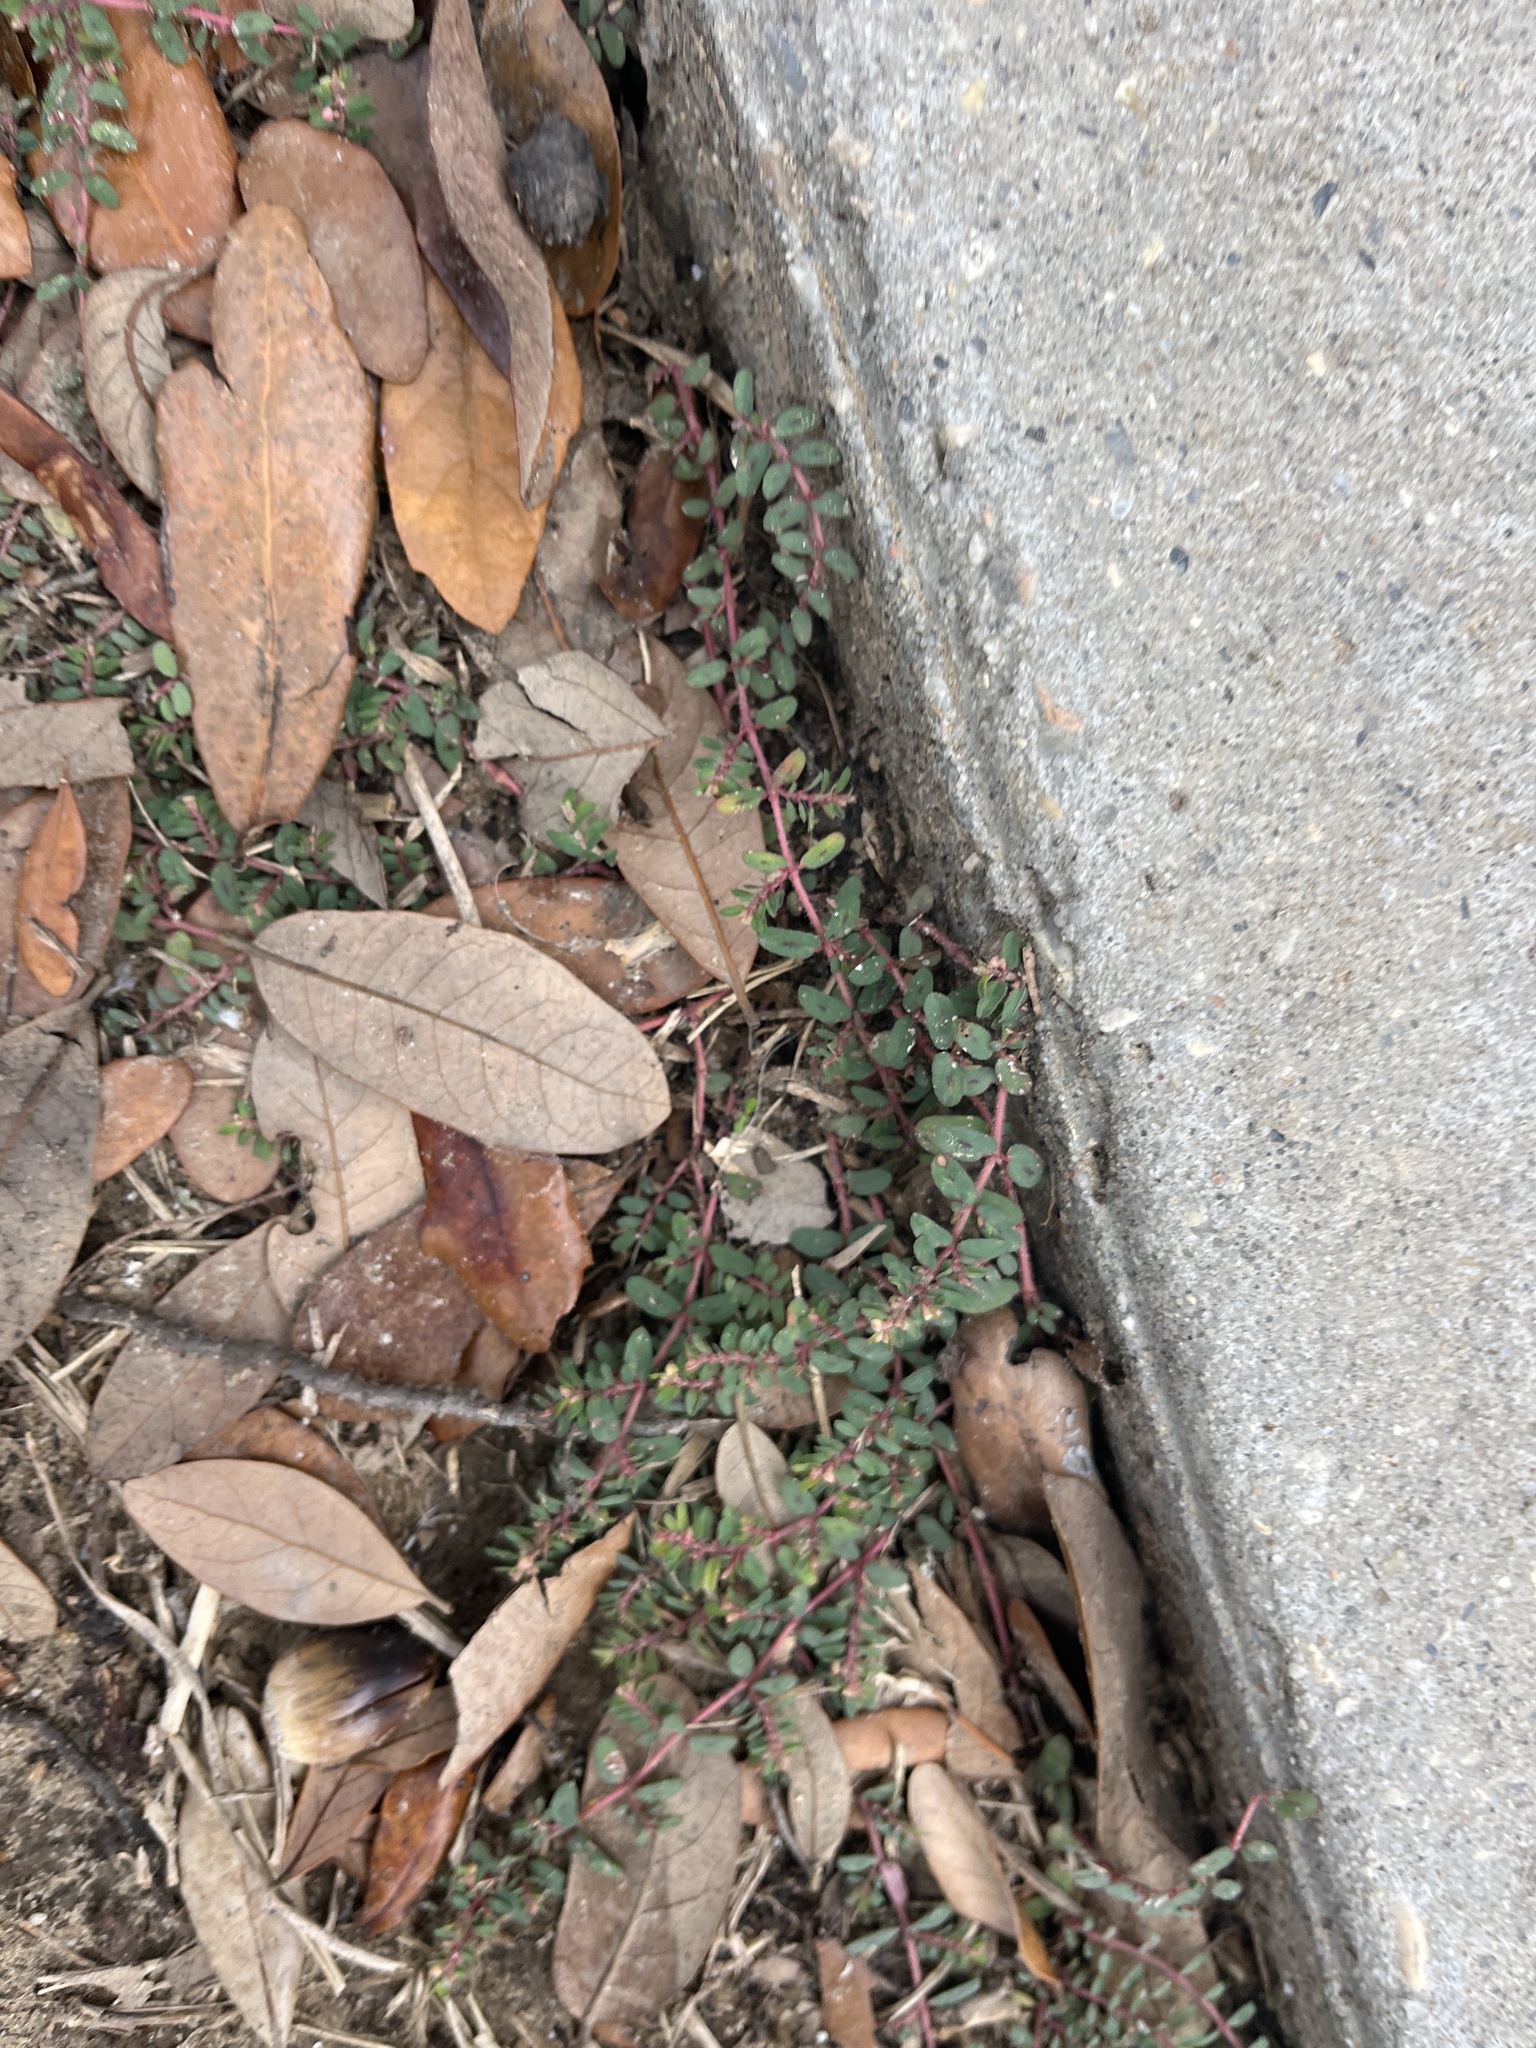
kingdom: Plantae
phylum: Tracheophyta
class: Magnoliopsida
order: Malpighiales
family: Euphorbiaceae
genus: Euphorbia
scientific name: Euphorbia maculata
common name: Spotted spurge
